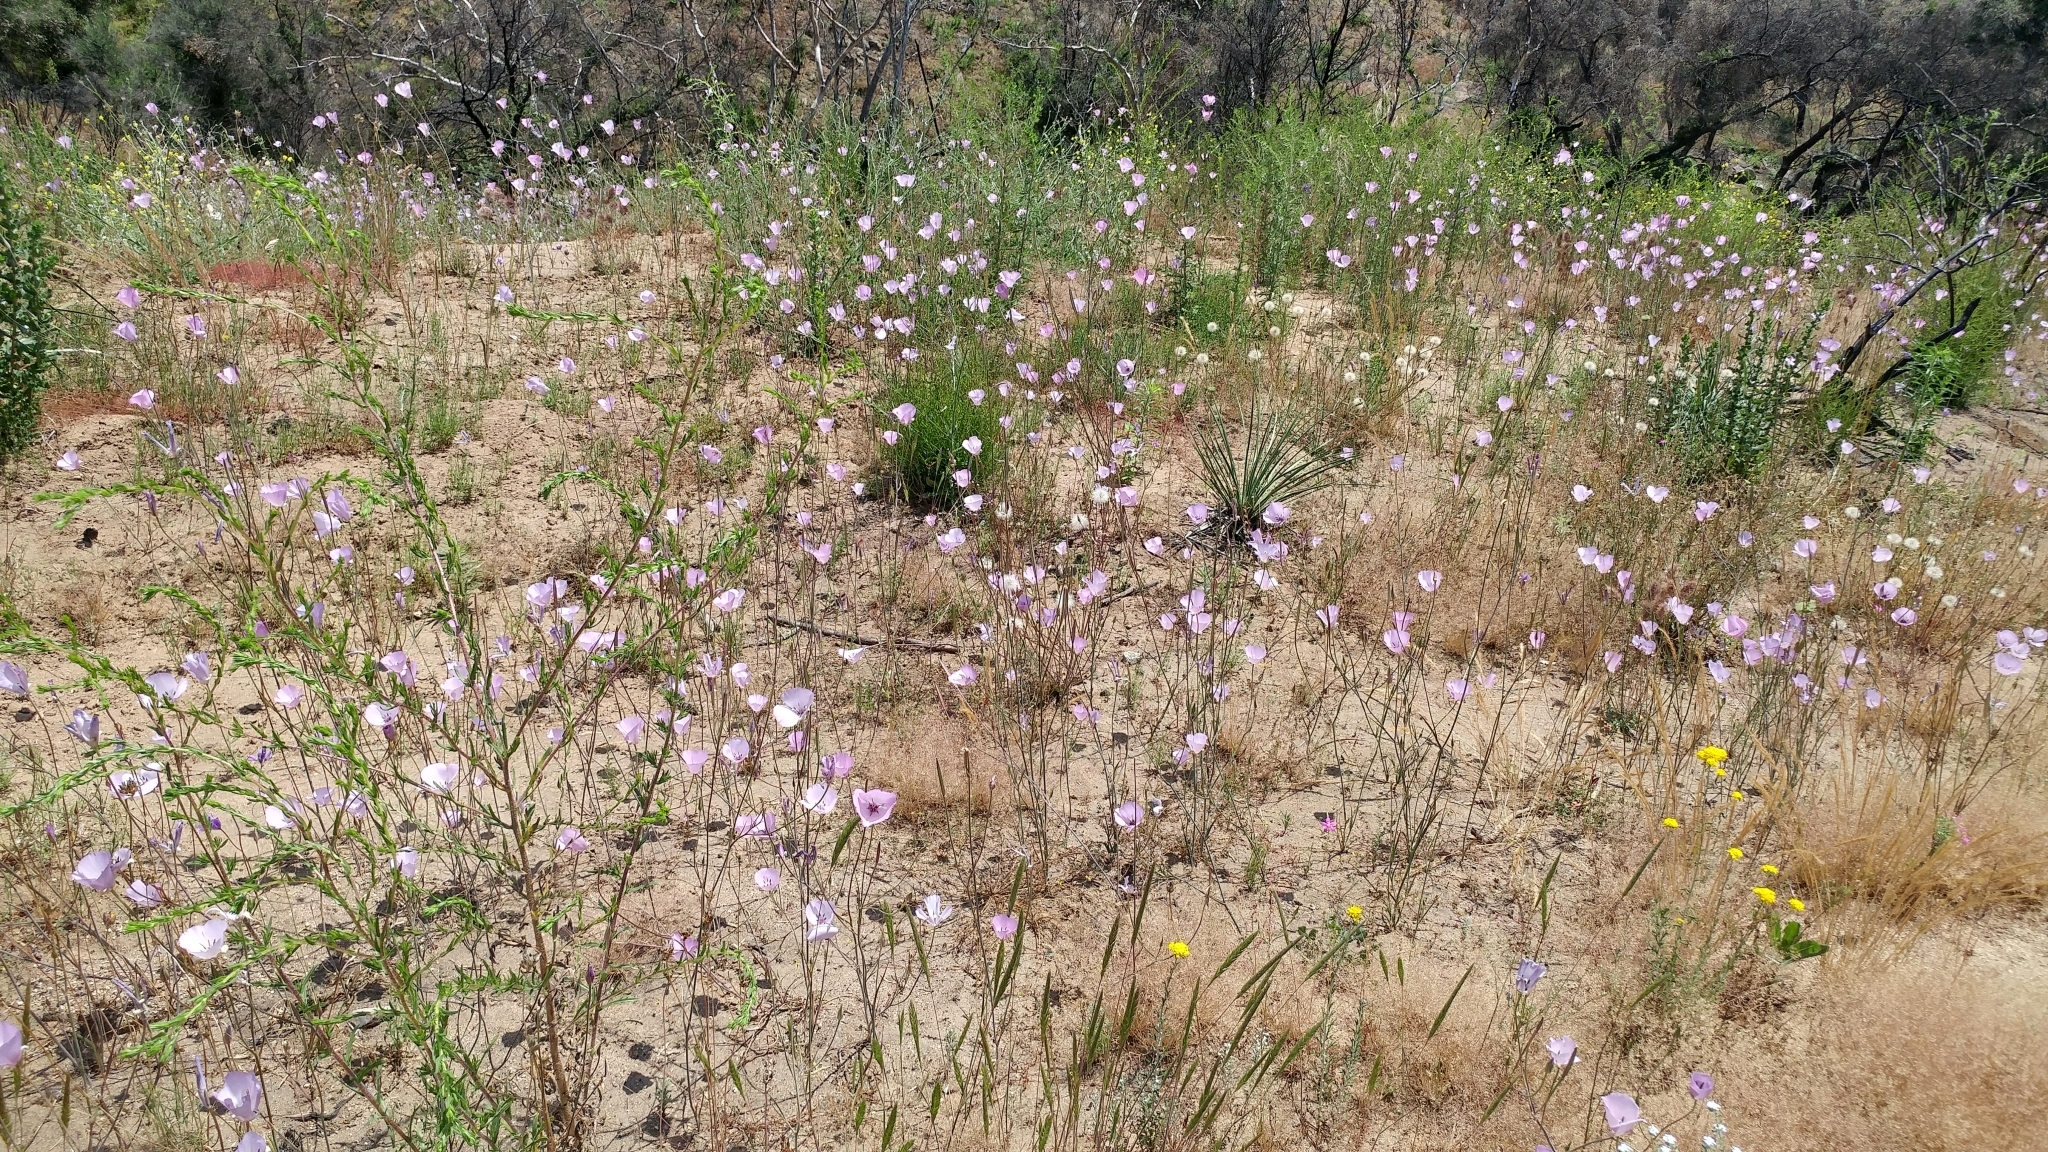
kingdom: Plantae
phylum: Tracheophyta
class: Liliopsida
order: Liliales
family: Liliaceae
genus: Calochortus
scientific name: Calochortus splendens
